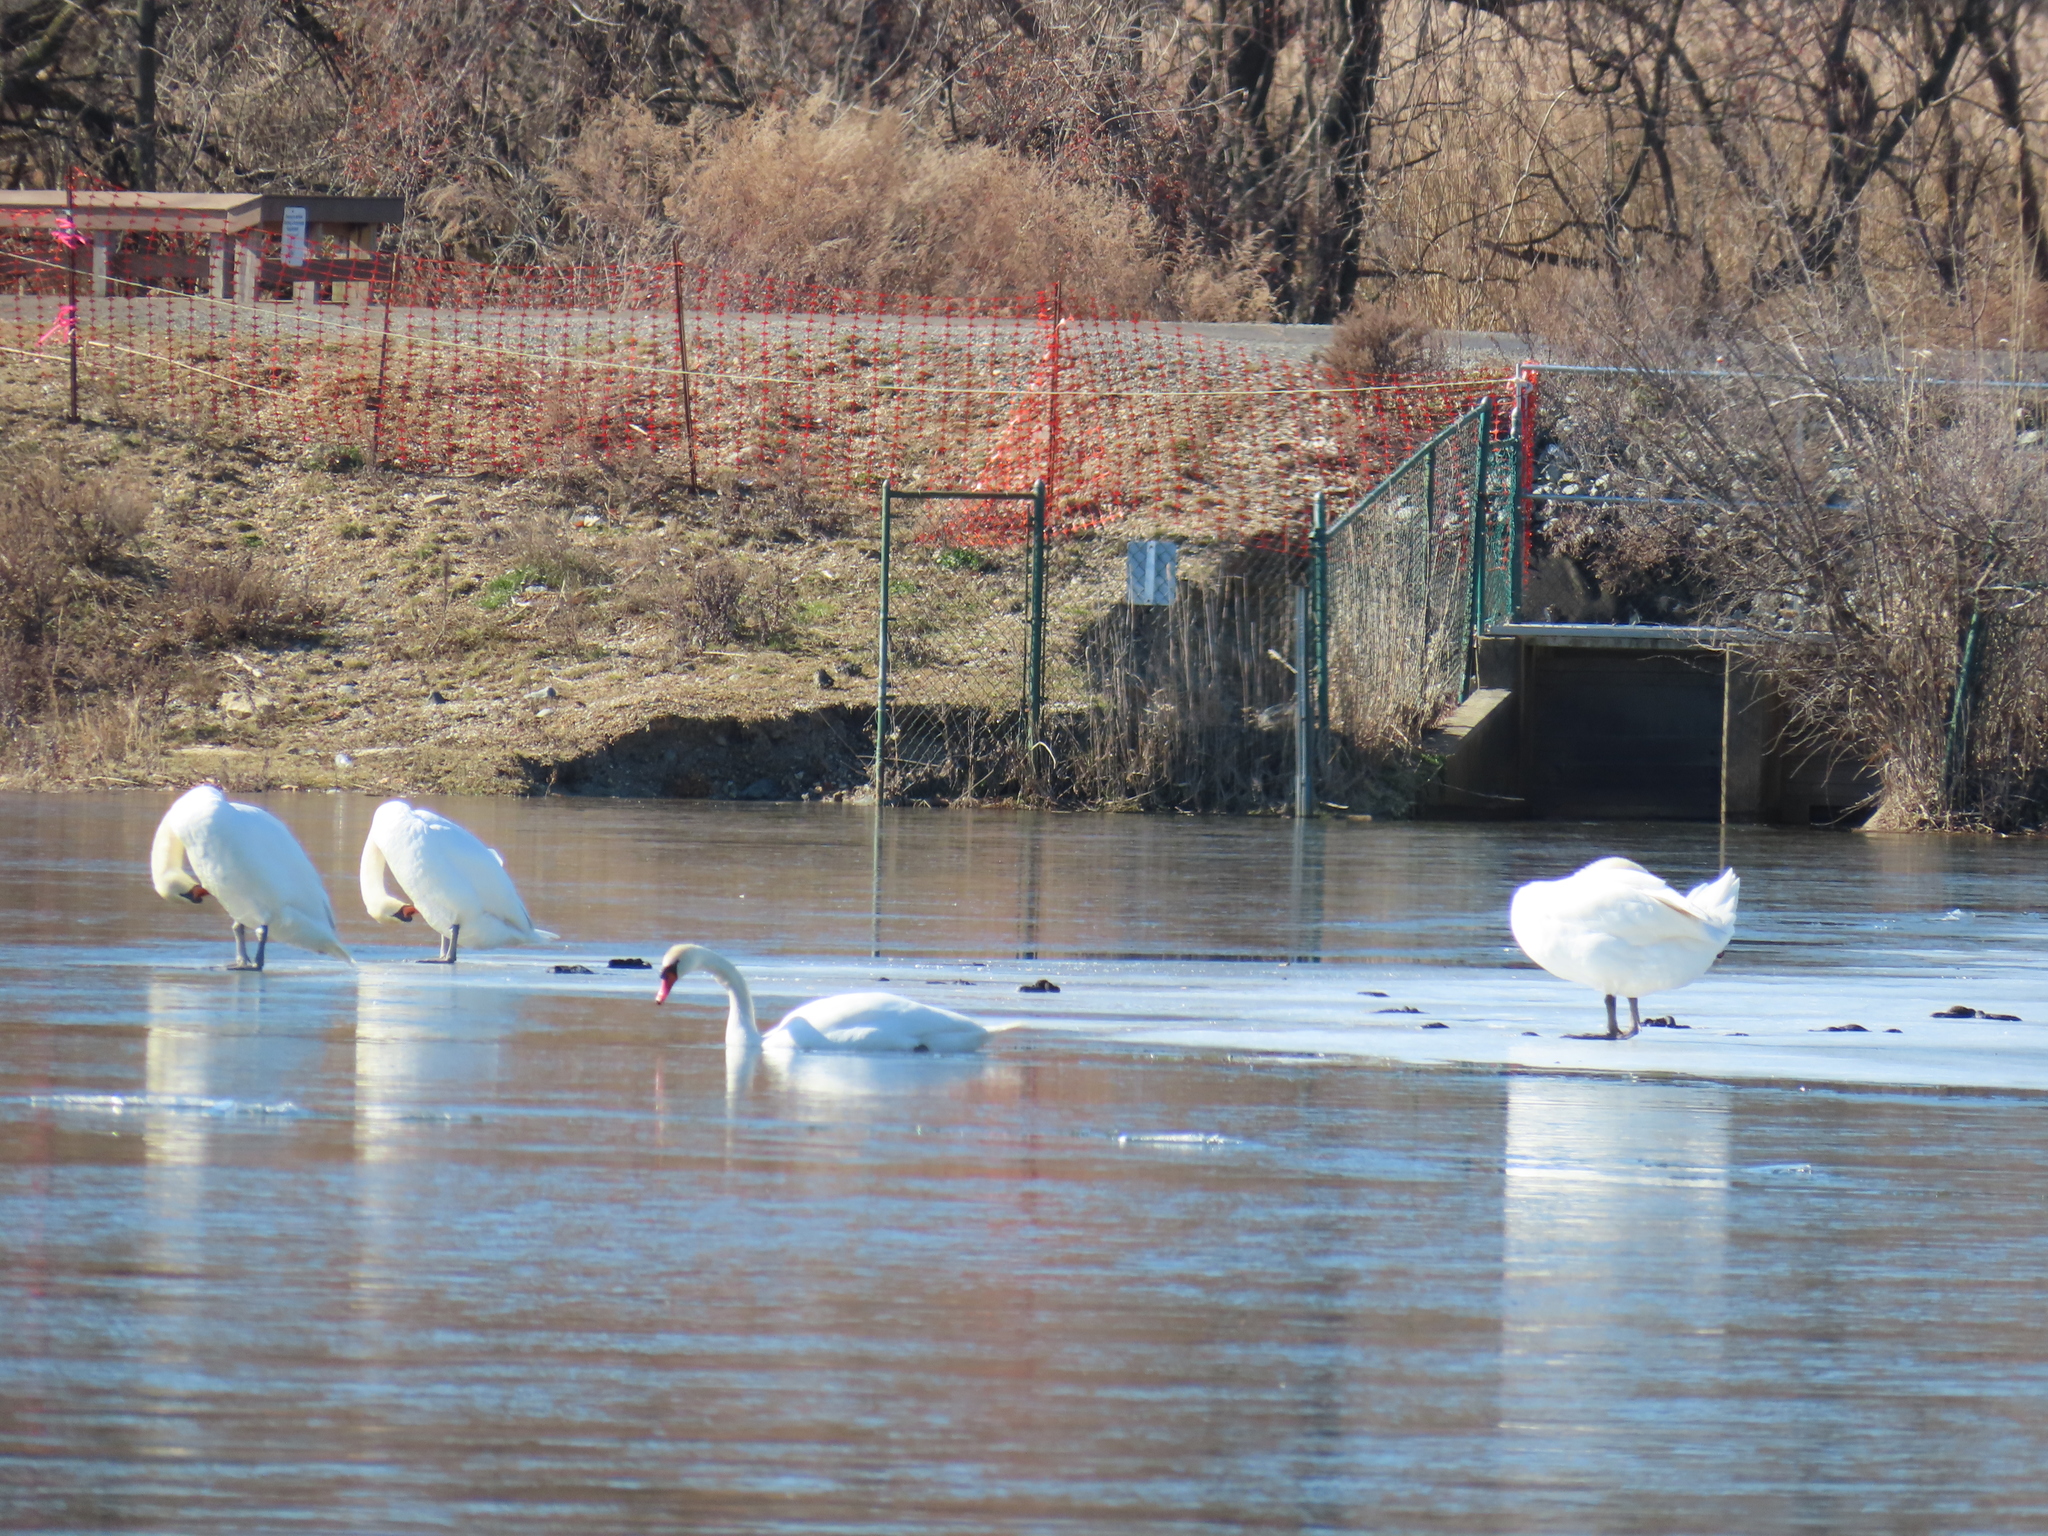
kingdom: Animalia
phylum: Chordata
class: Aves
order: Anseriformes
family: Anatidae
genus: Cygnus
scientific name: Cygnus olor
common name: Mute swan
